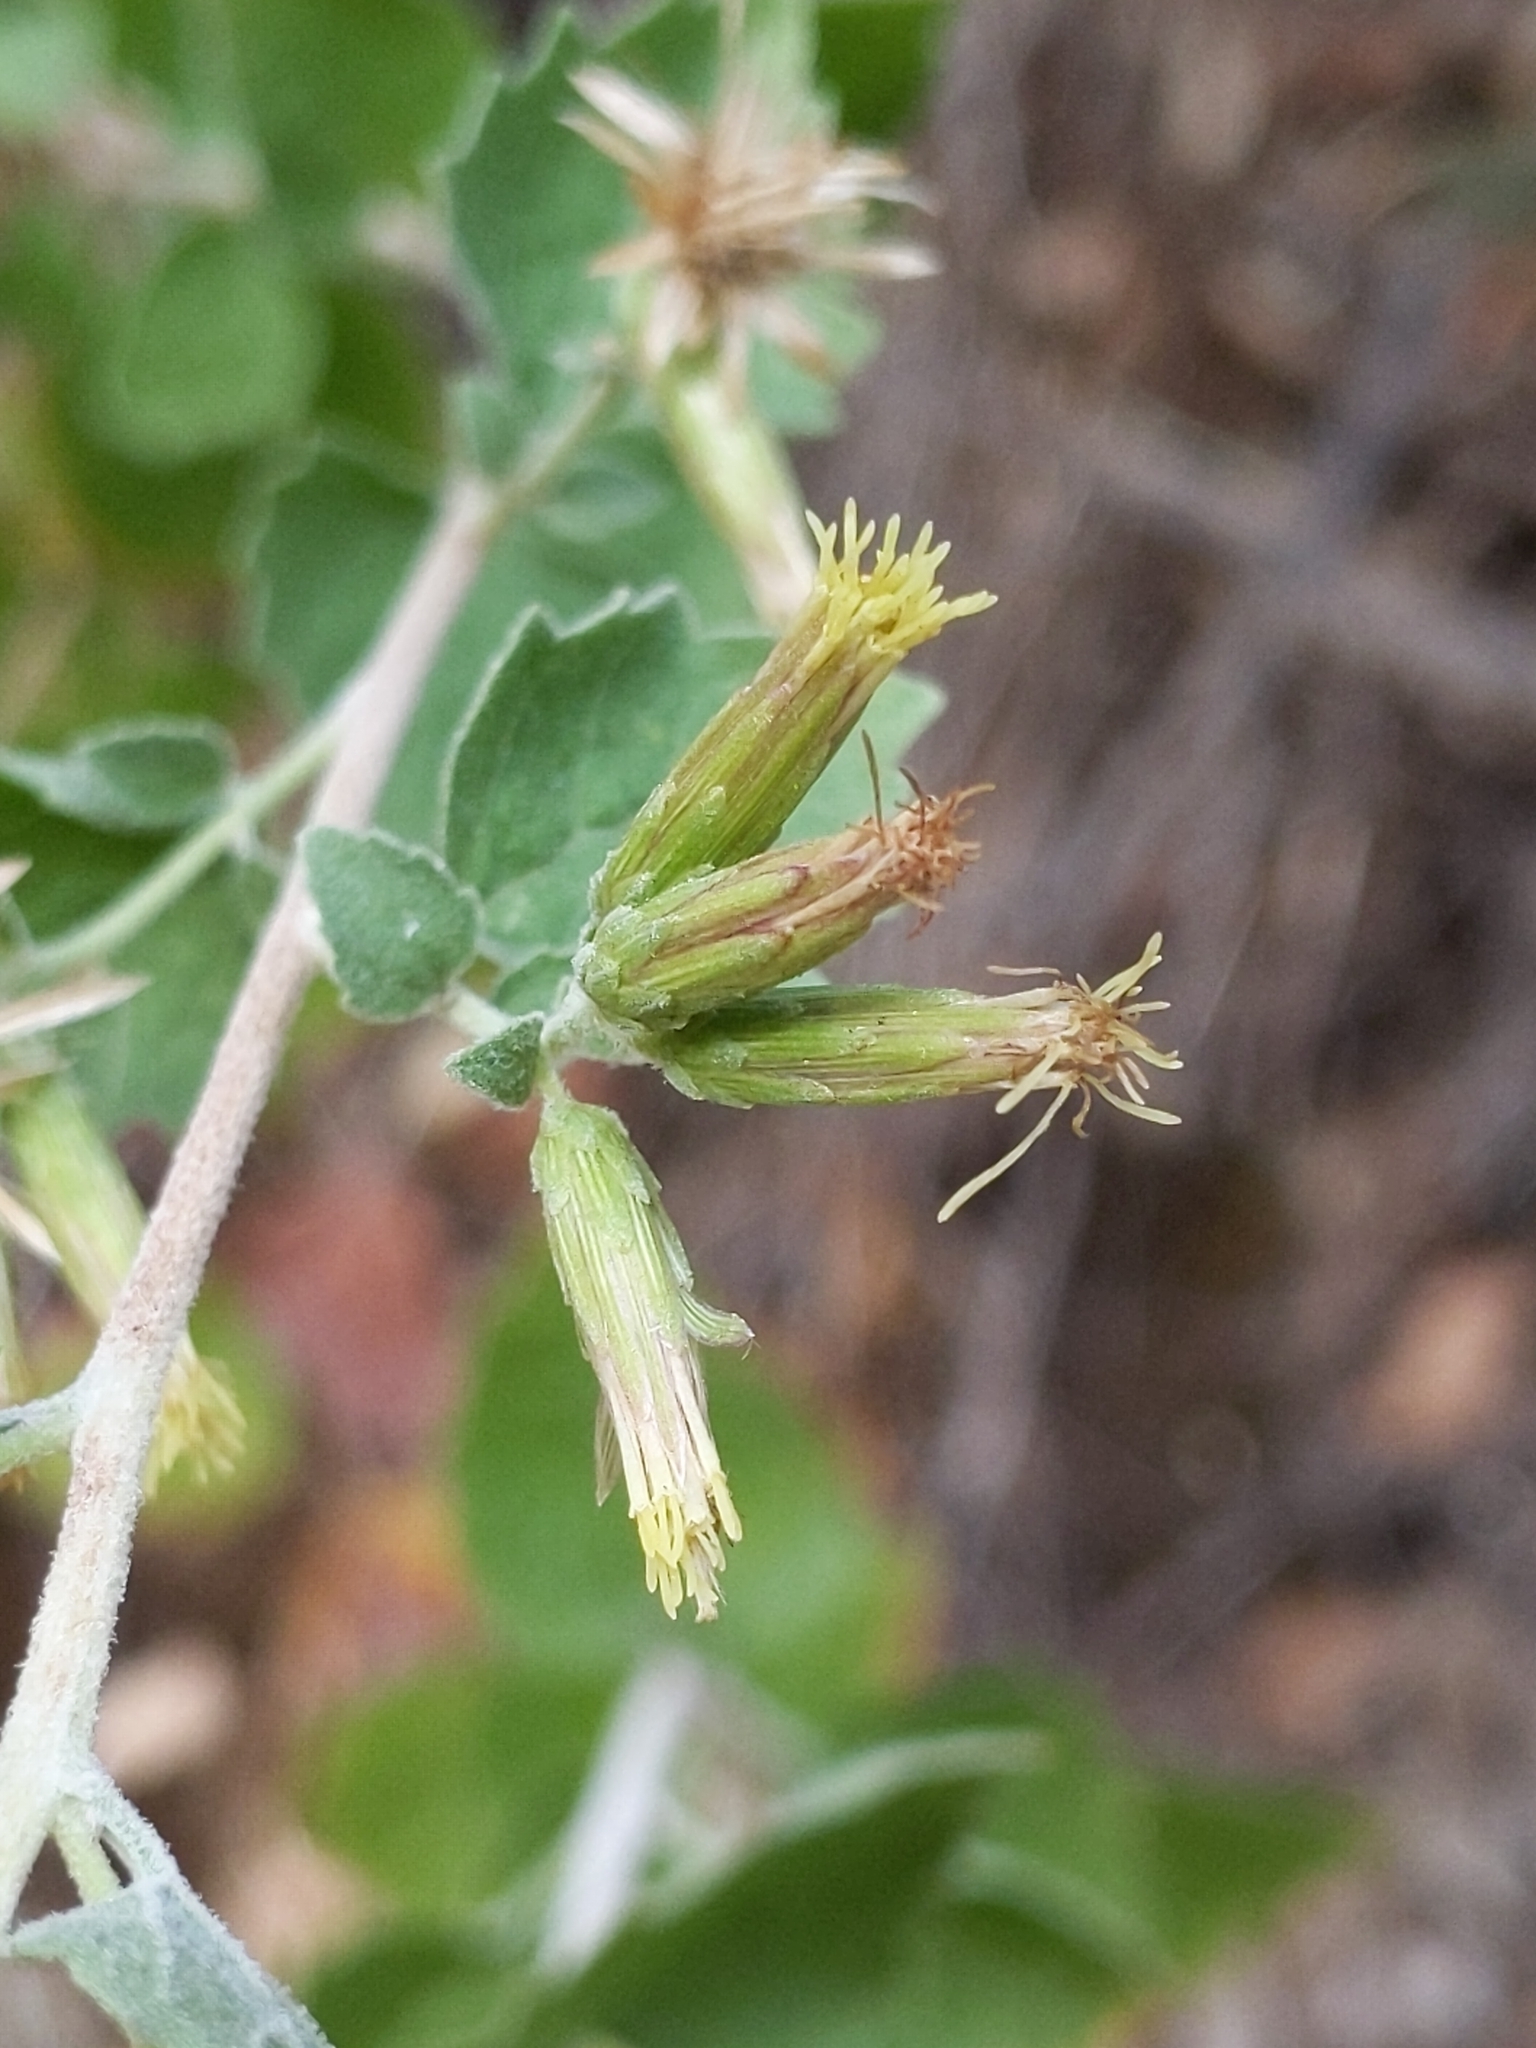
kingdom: Plantae
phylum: Tracheophyta
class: Magnoliopsida
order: Asterales
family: Asteraceae
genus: Brickellia
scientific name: Brickellia californica
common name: California brickellbush
